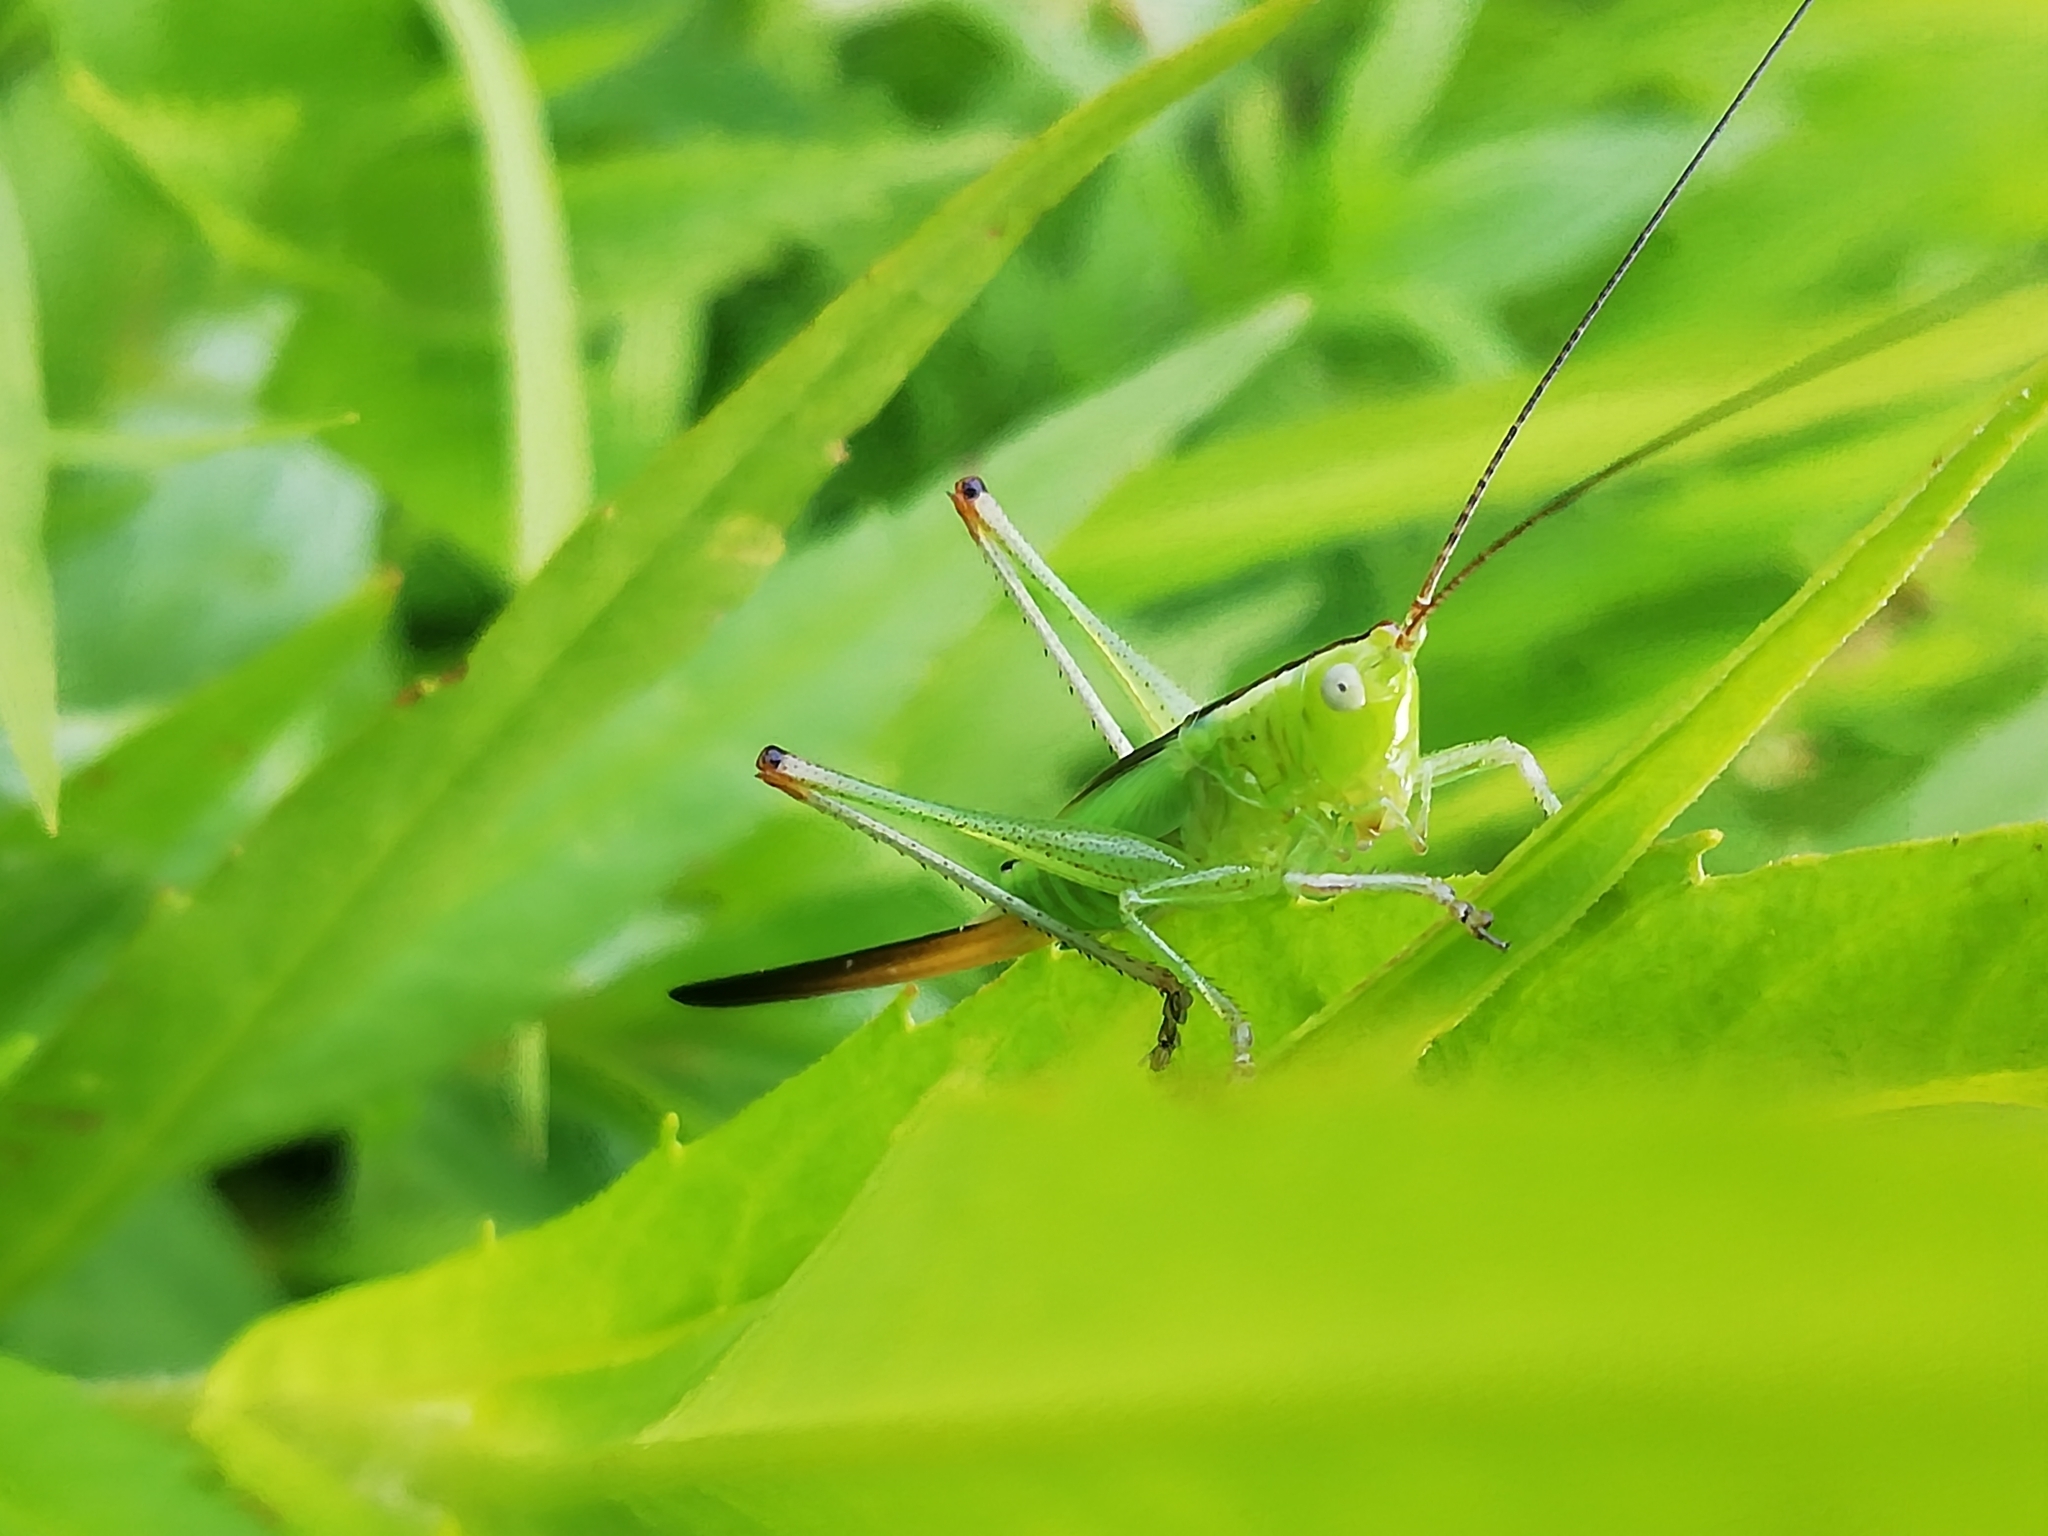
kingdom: Animalia
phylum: Arthropoda
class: Insecta
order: Orthoptera
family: Tettigoniidae
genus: Conocephalus
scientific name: Conocephalus fuscus
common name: Long-winged conehead
